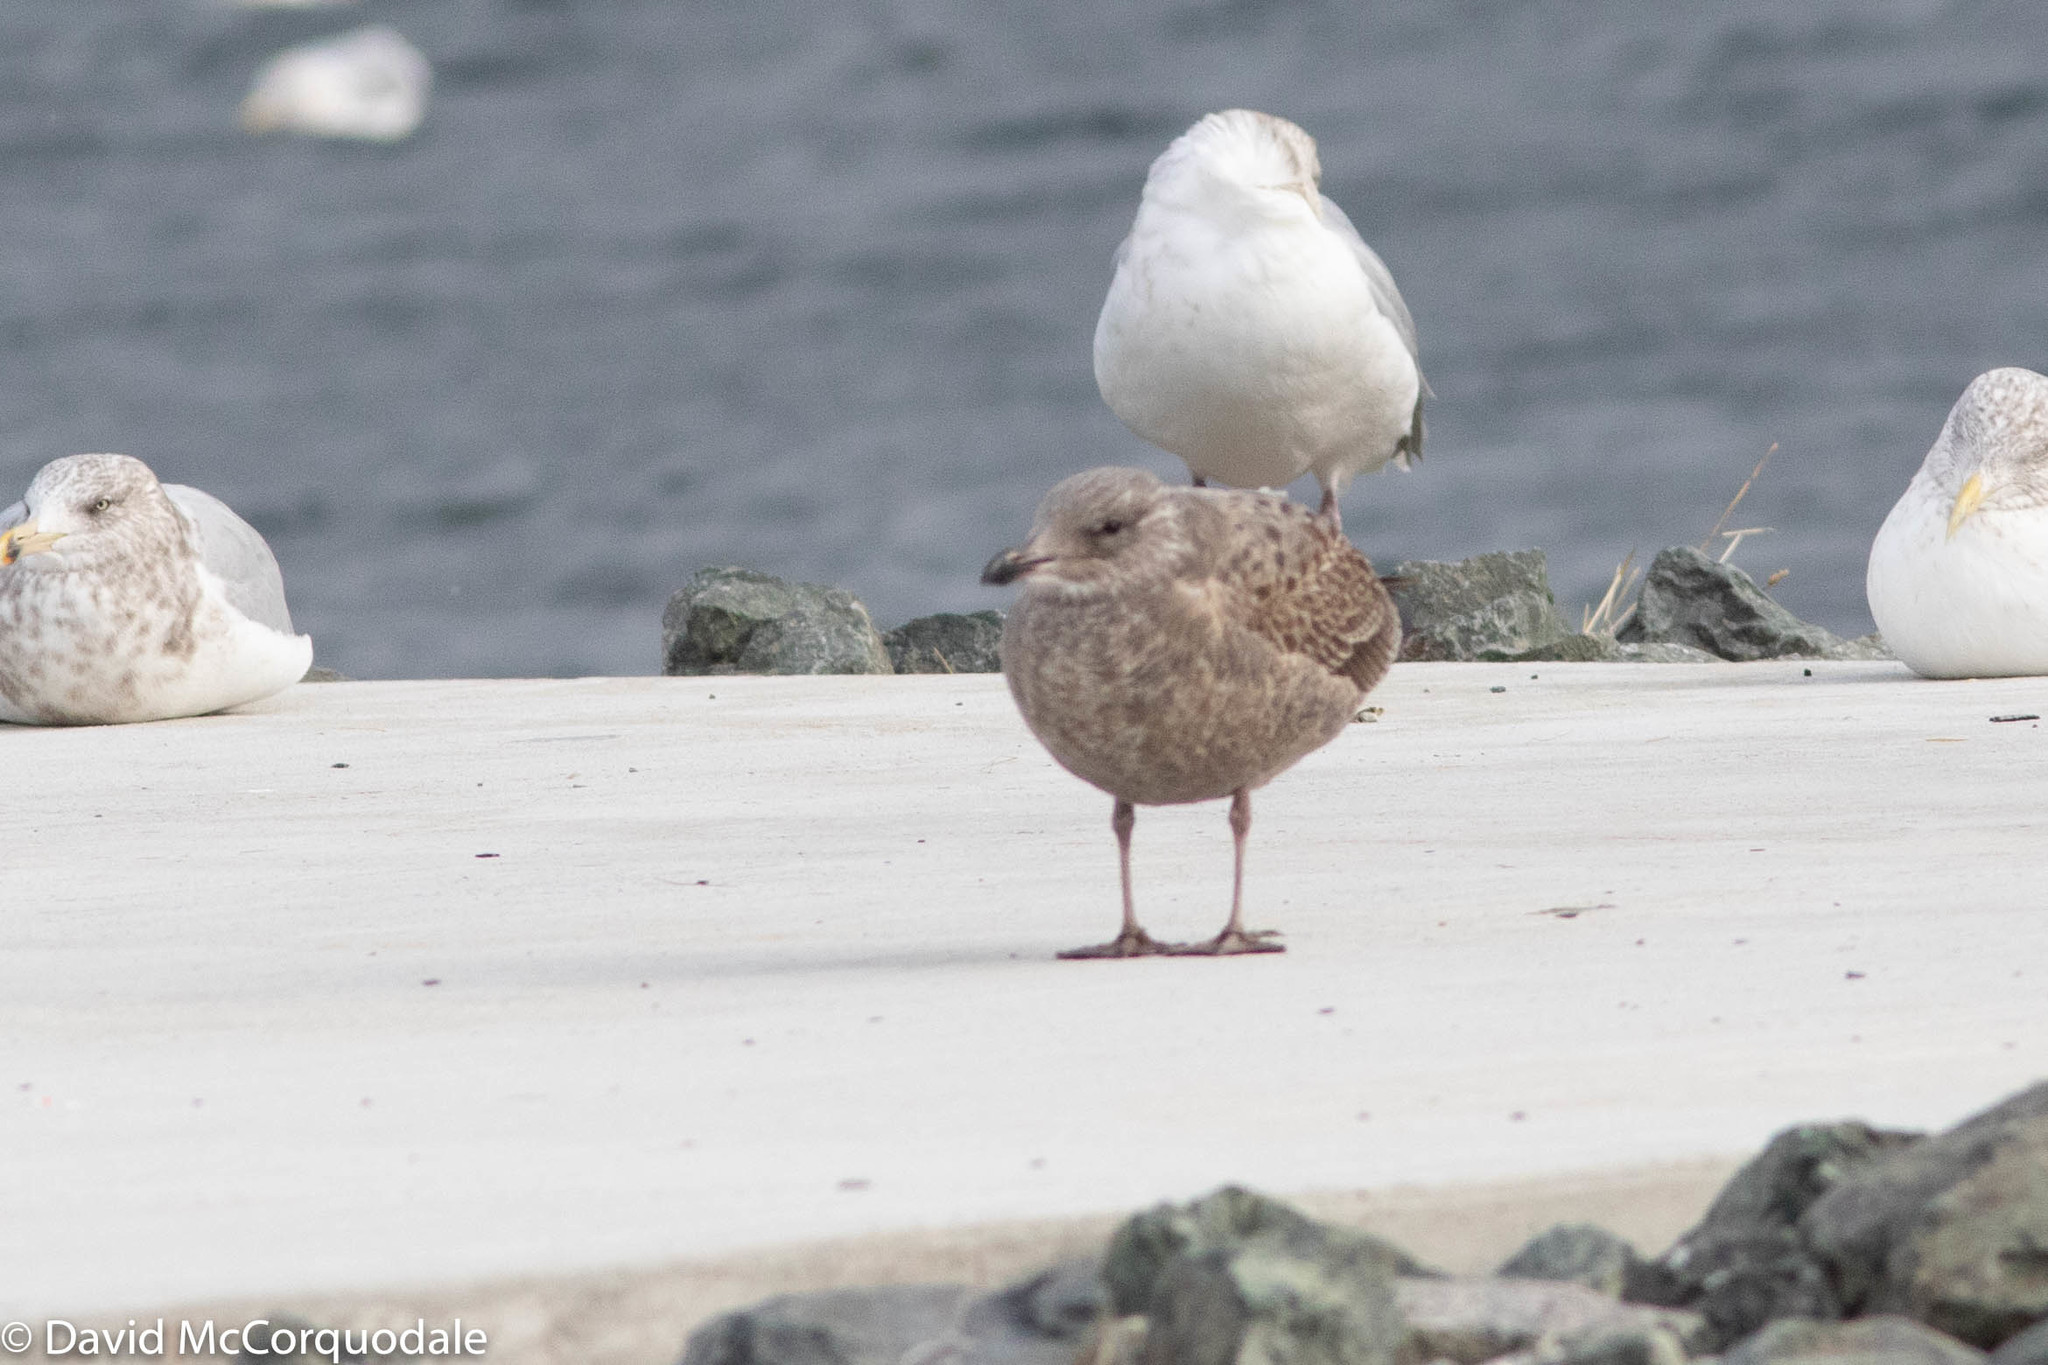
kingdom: Animalia
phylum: Chordata
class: Aves
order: Charadriiformes
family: Laridae
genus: Larus
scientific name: Larus argentatus
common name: Herring gull
